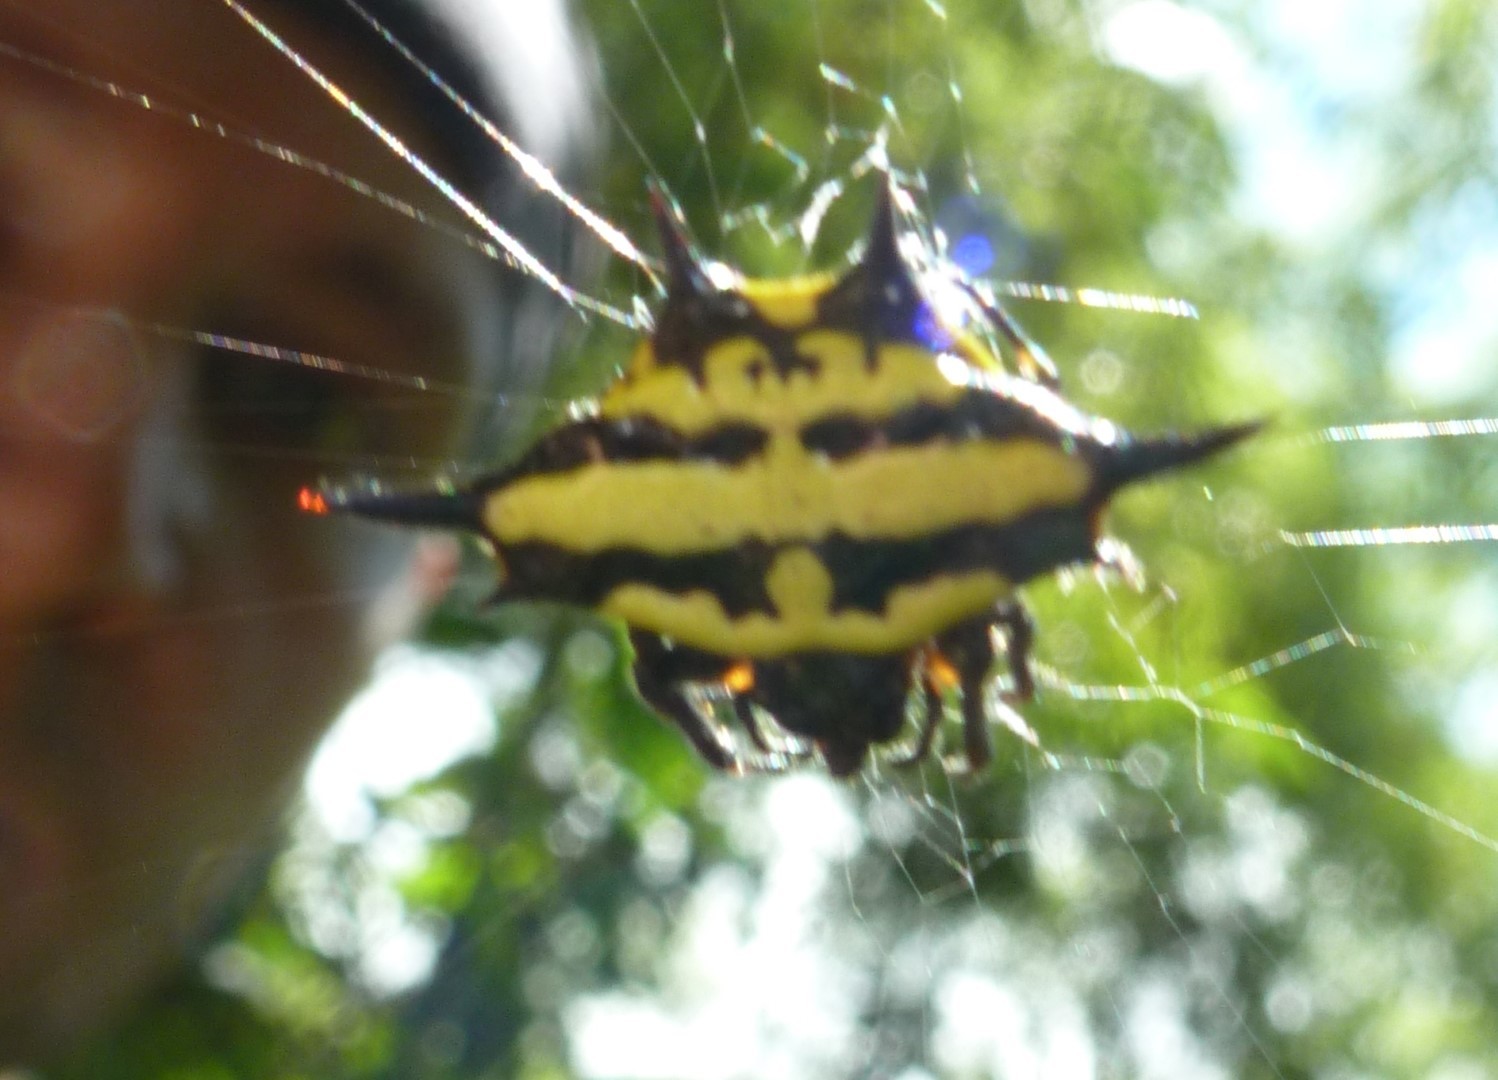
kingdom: Animalia
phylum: Arthropoda
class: Arachnida
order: Araneae
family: Araneidae
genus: Gasteracantha
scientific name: Gasteracantha rhomboidea
